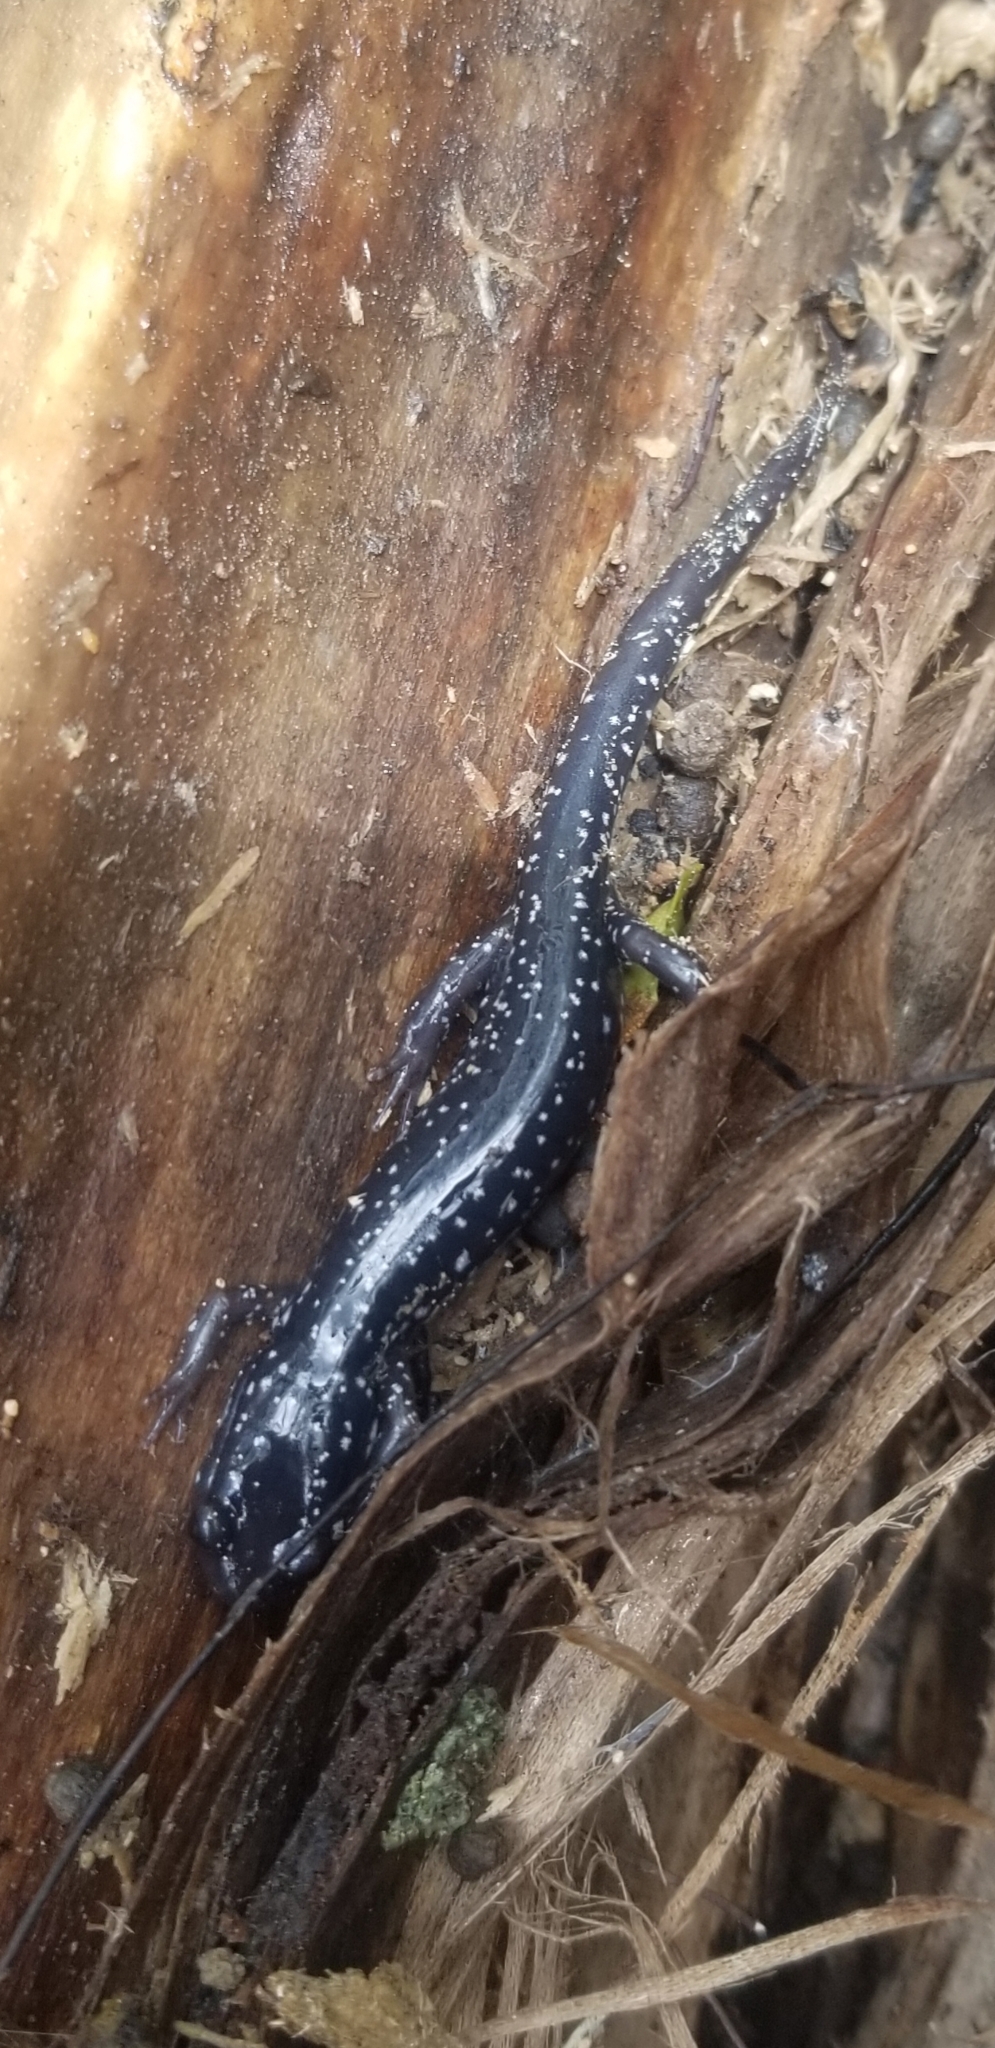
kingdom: Animalia
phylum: Chordata
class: Amphibia
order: Caudata
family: Plethodontidae
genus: Plethodon
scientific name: Plethodon cylindraceus
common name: White-spotted slimy salamander
